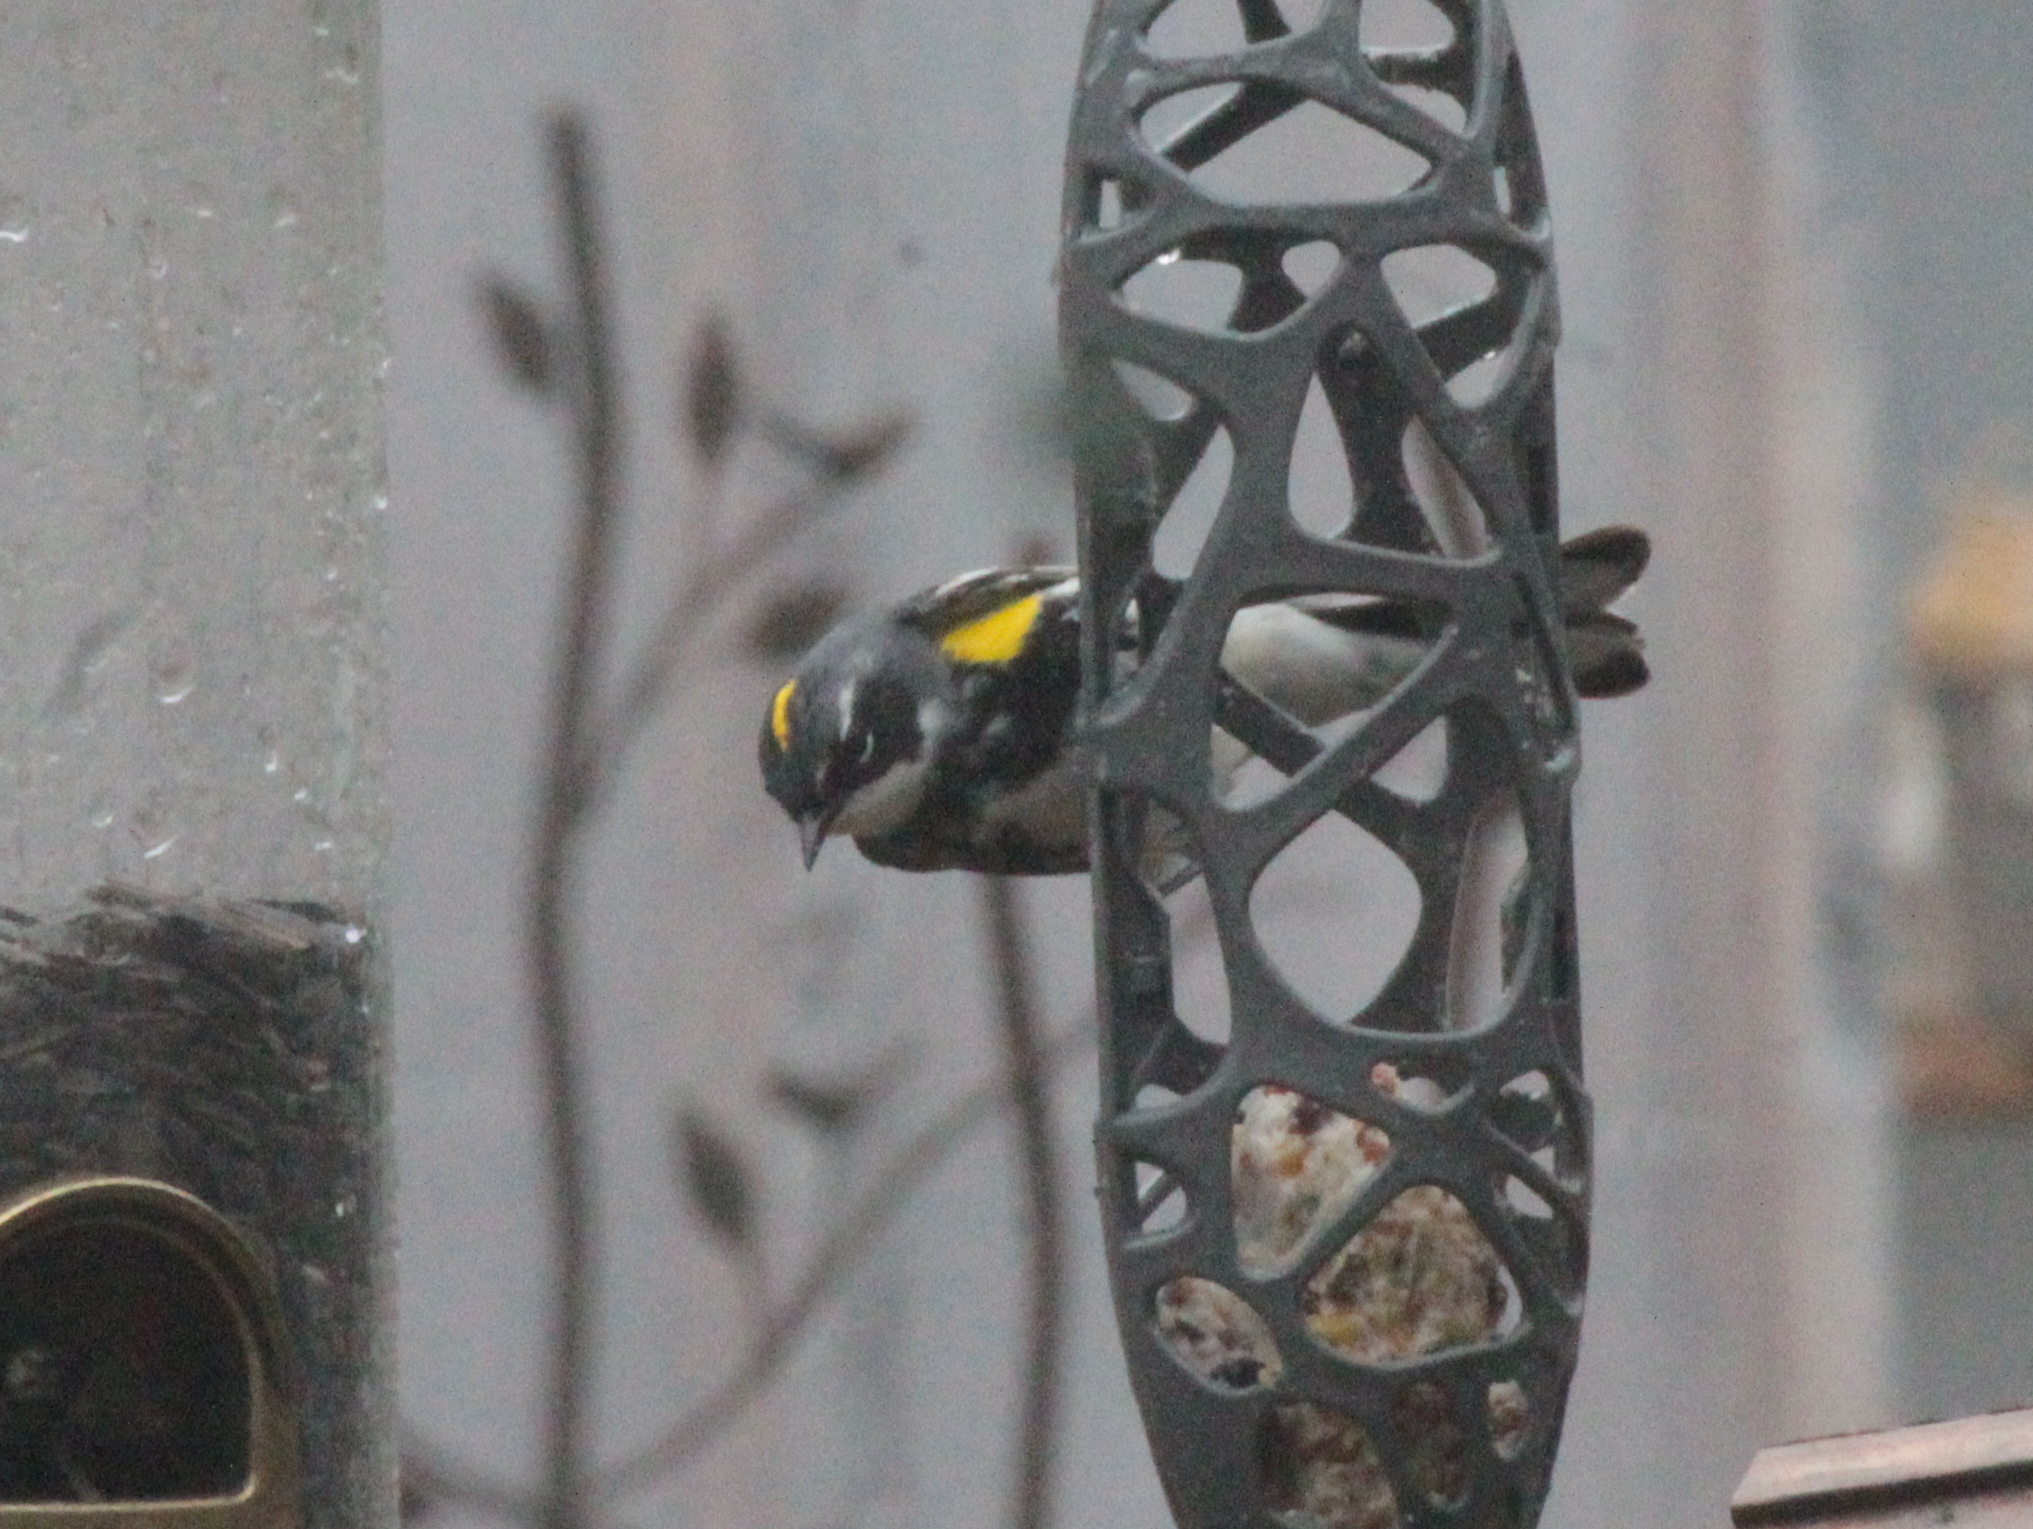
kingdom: Animalia
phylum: Chordata
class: Aves
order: Passeriformes
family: Parulidae
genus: Setophaga
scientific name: Setophaga coronata
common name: Myrtle warbler
